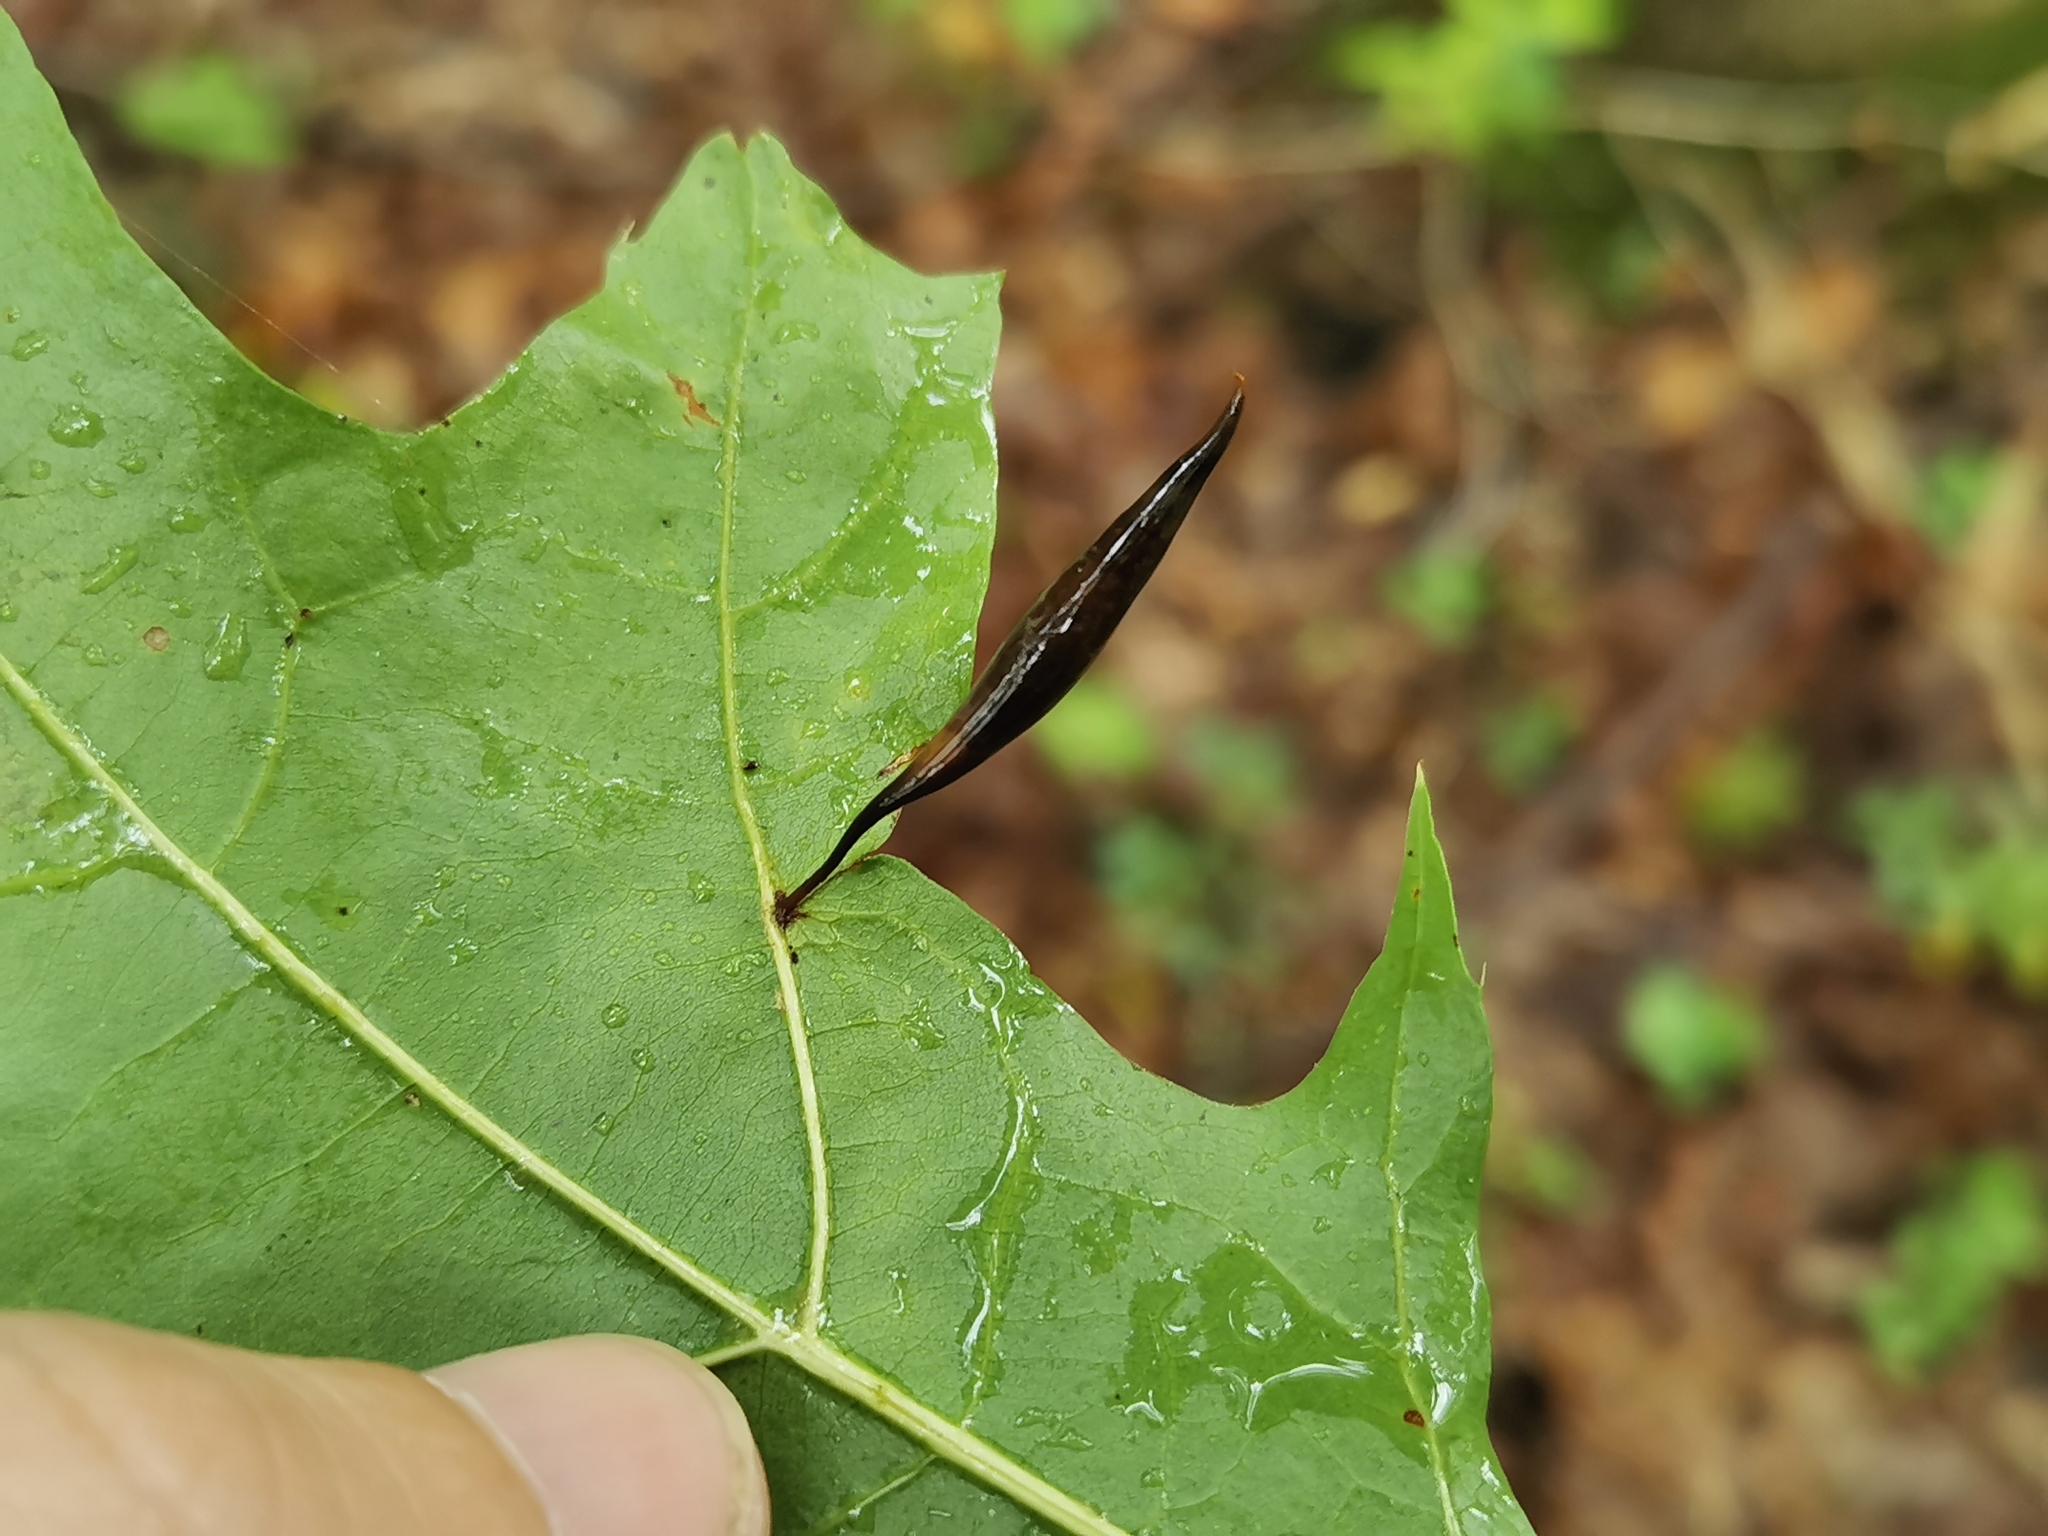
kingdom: Animalia
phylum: Arthropoda
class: Insecta
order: Hymenoptera
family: Cynipidae
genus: Amphibolips
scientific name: Amphibolips
